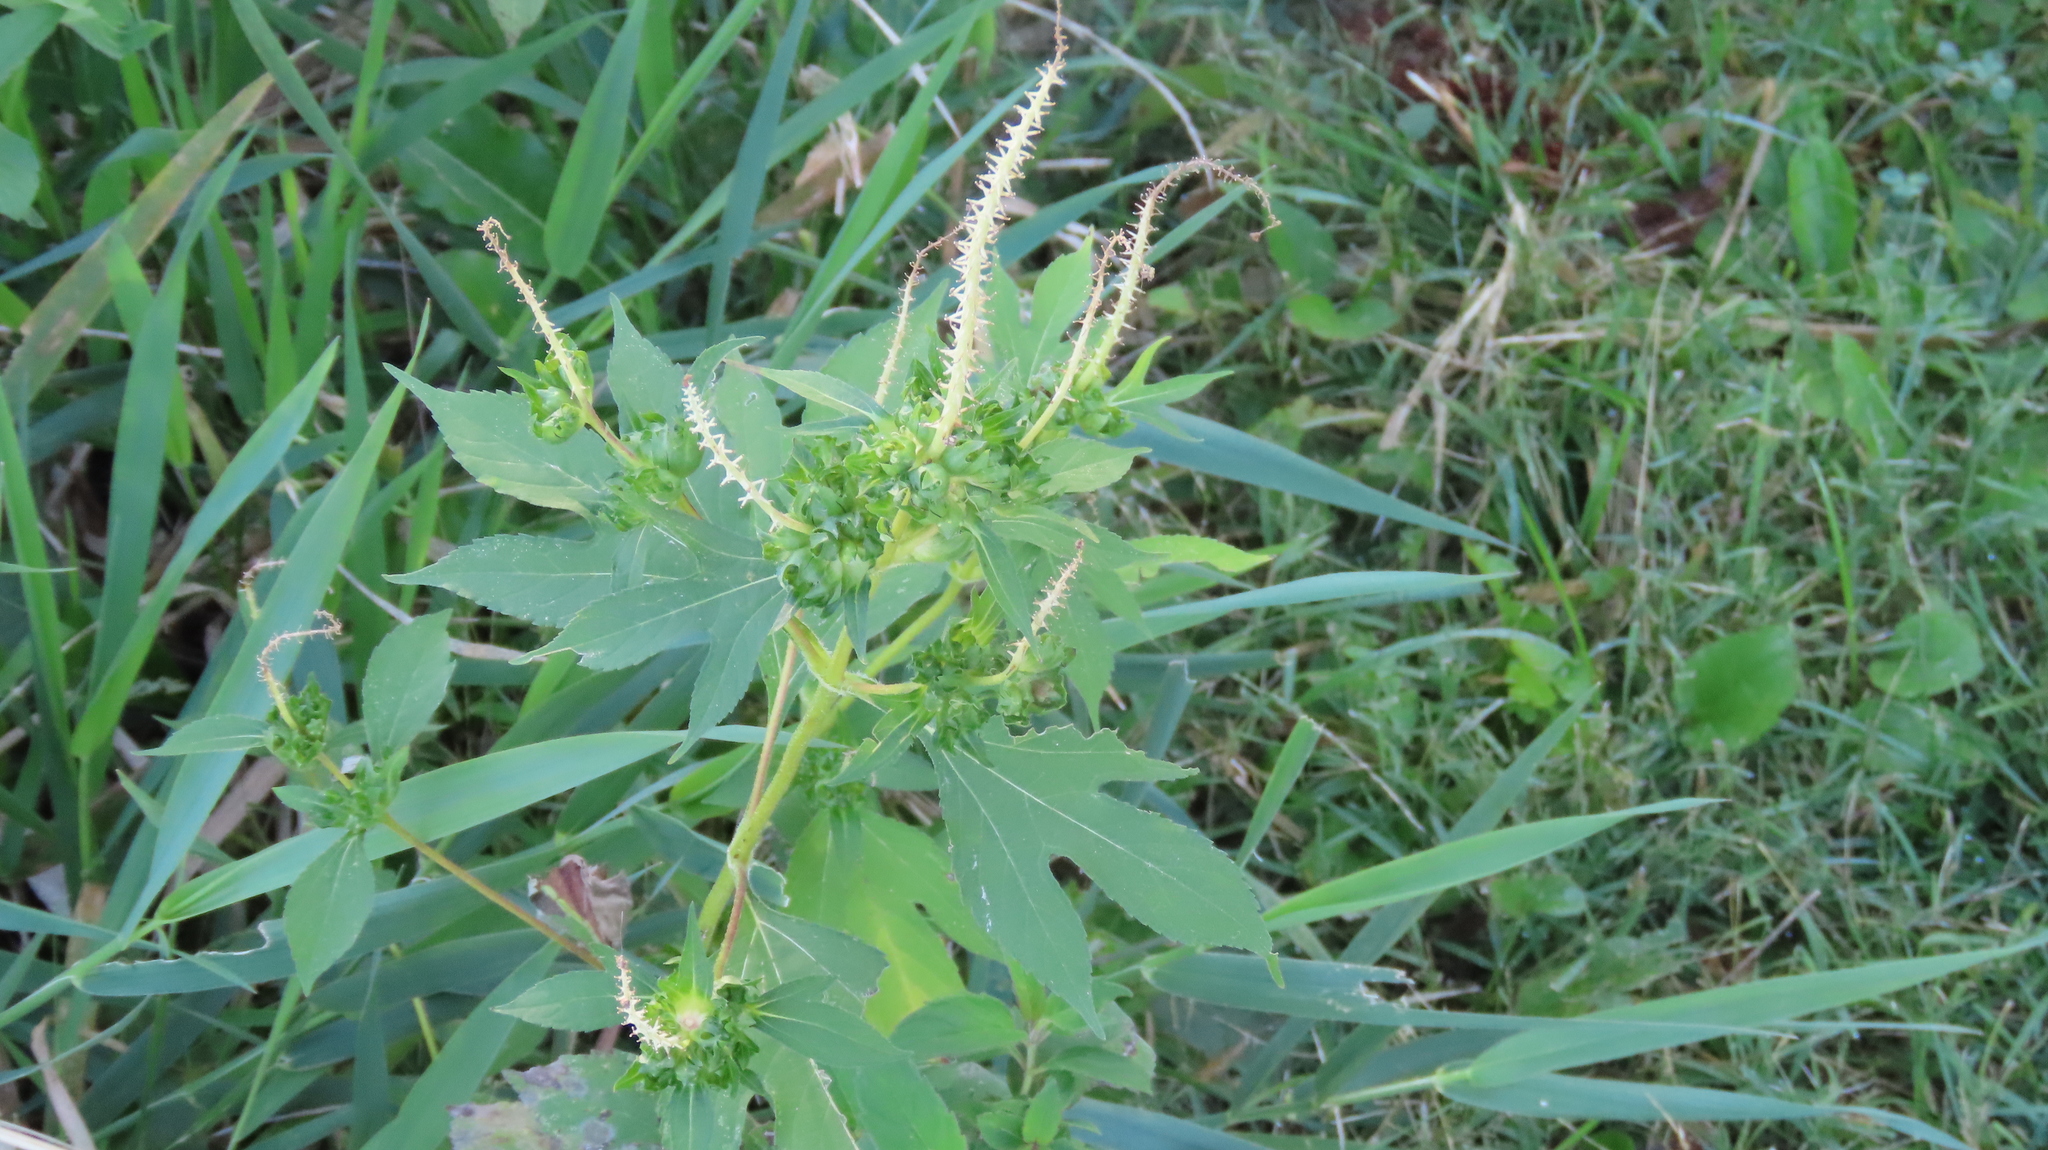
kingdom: Plantae
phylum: Tracheophyta
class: Magnoliopsida
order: Asterales
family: Asteraceae
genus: Ambrosia
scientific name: Ambrosia trifida
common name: Giant ragweed
